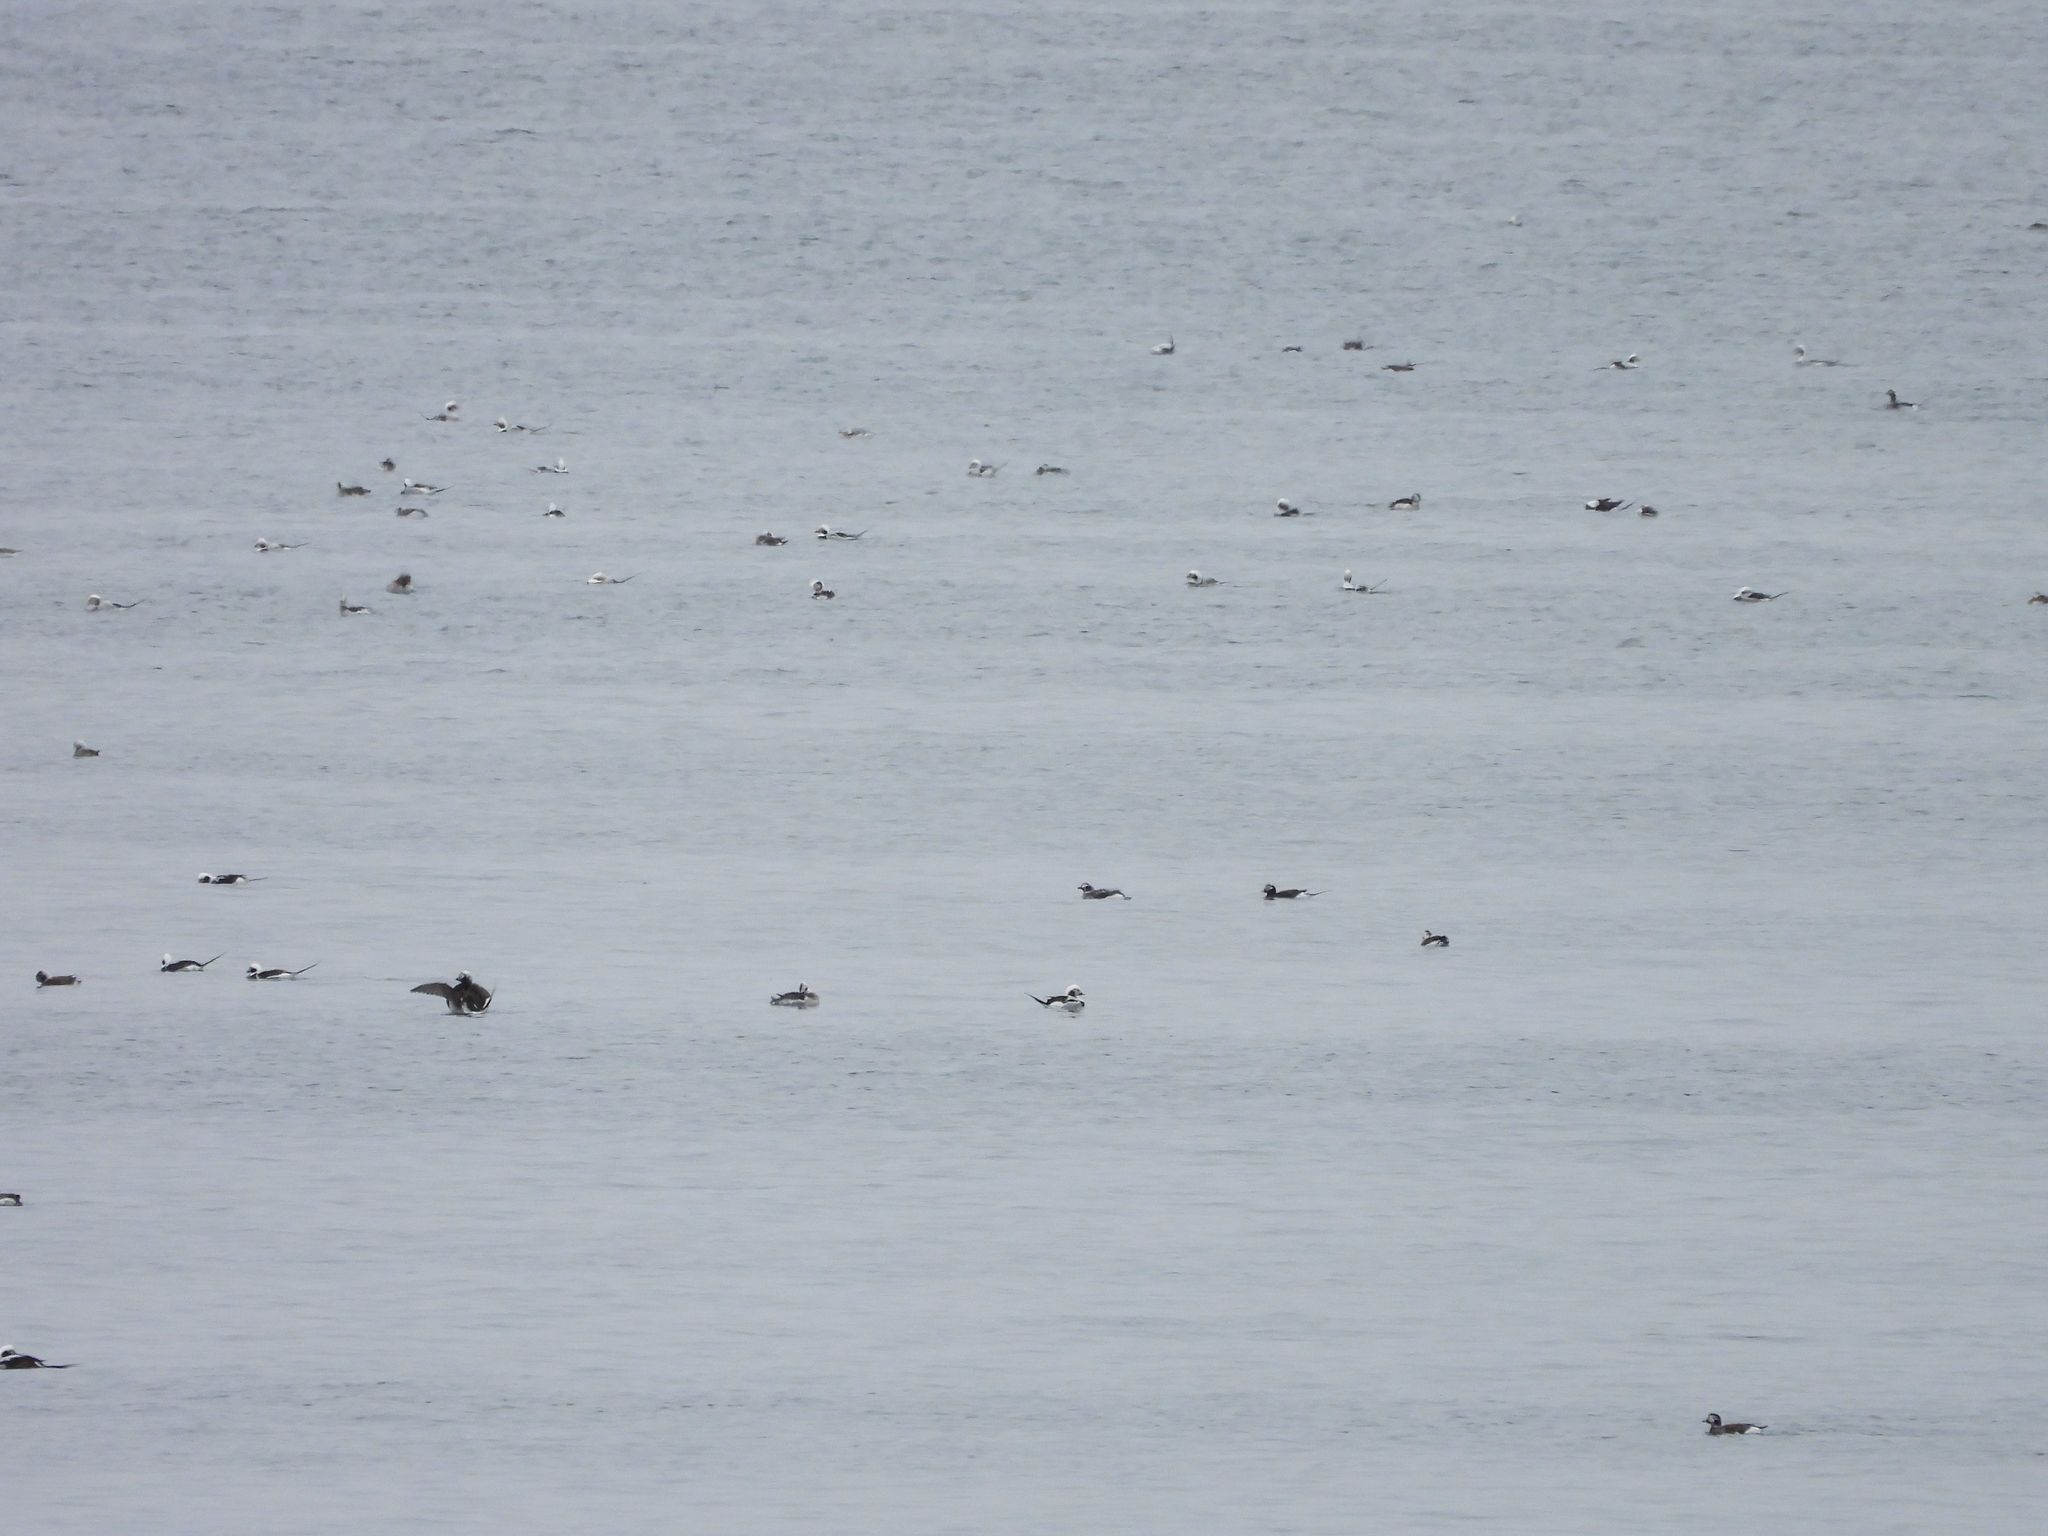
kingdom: Animalia
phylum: Chordata
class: Aves
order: Anseriformes
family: Anatidae
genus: Clangula
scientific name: Clangula hyemalis
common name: Long-tailed duck
